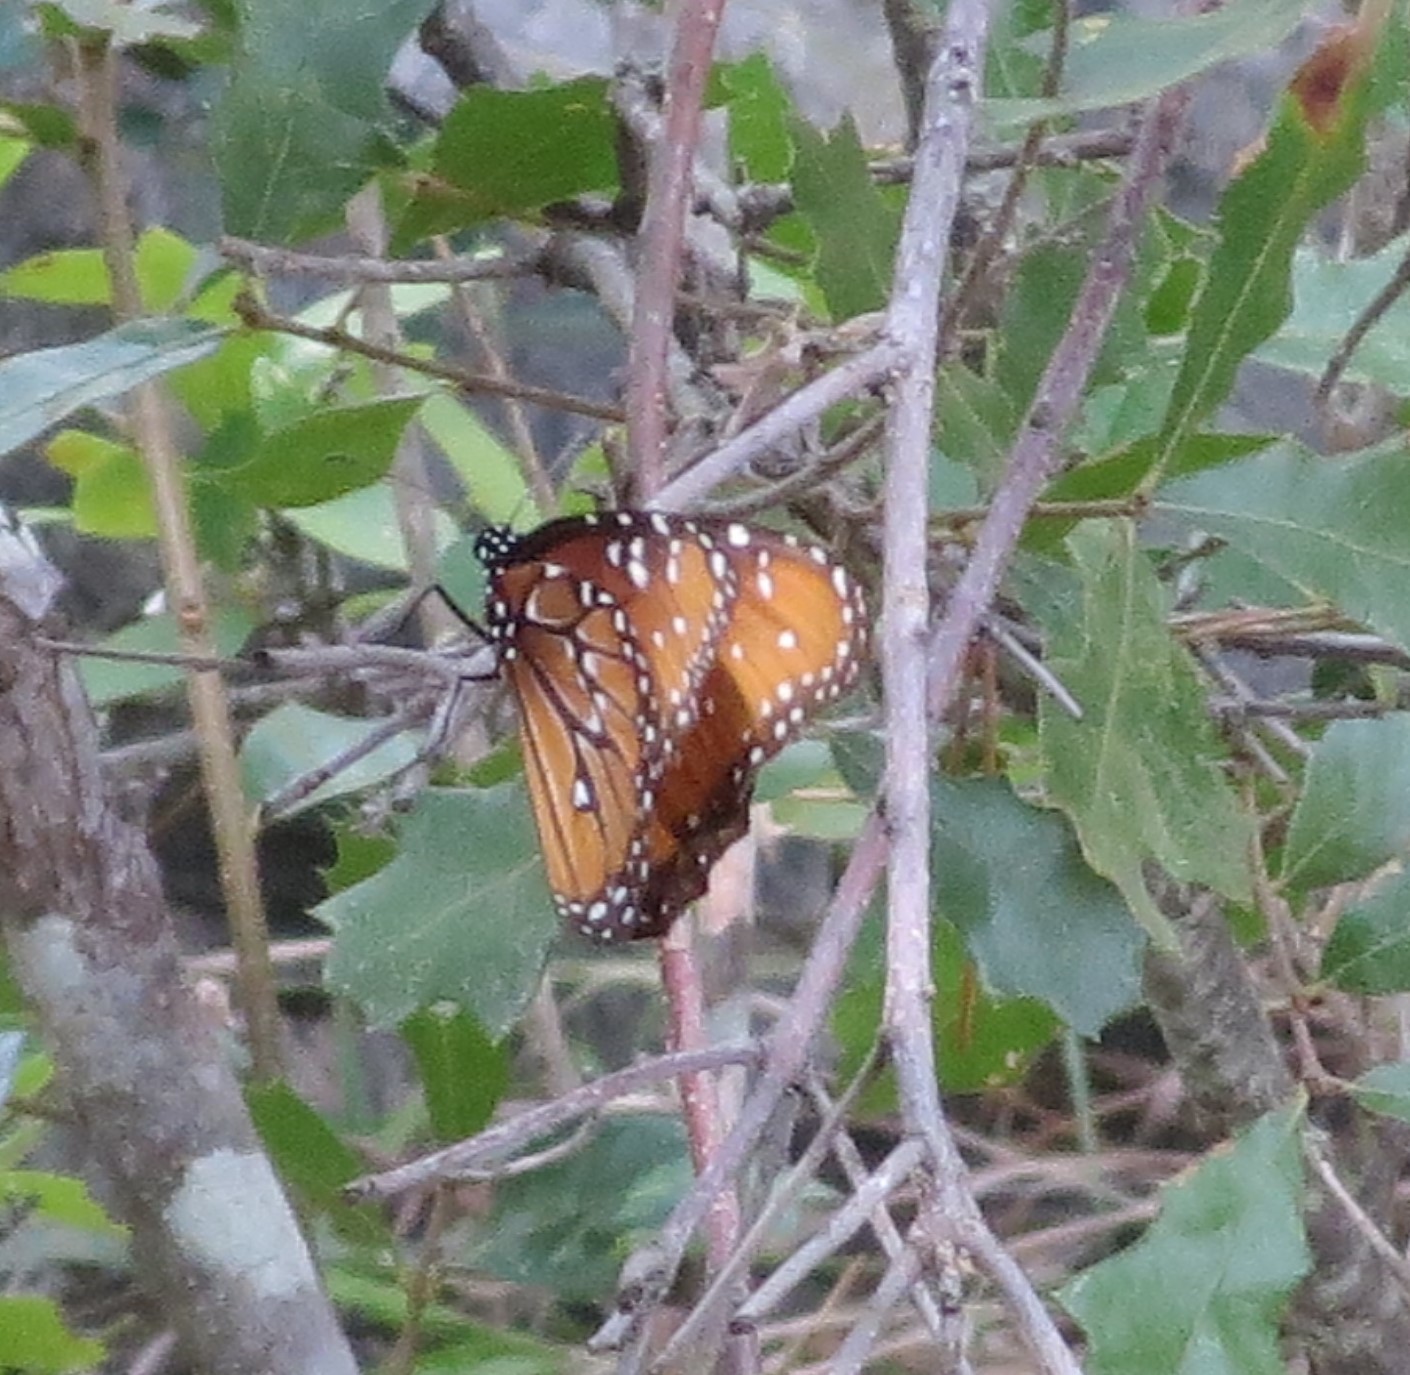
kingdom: Animalia
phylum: Arthropoda
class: Insecta
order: Lepidoptera
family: Nymphalidae
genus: Danaus
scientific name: Danaus gilippus
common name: Queen
